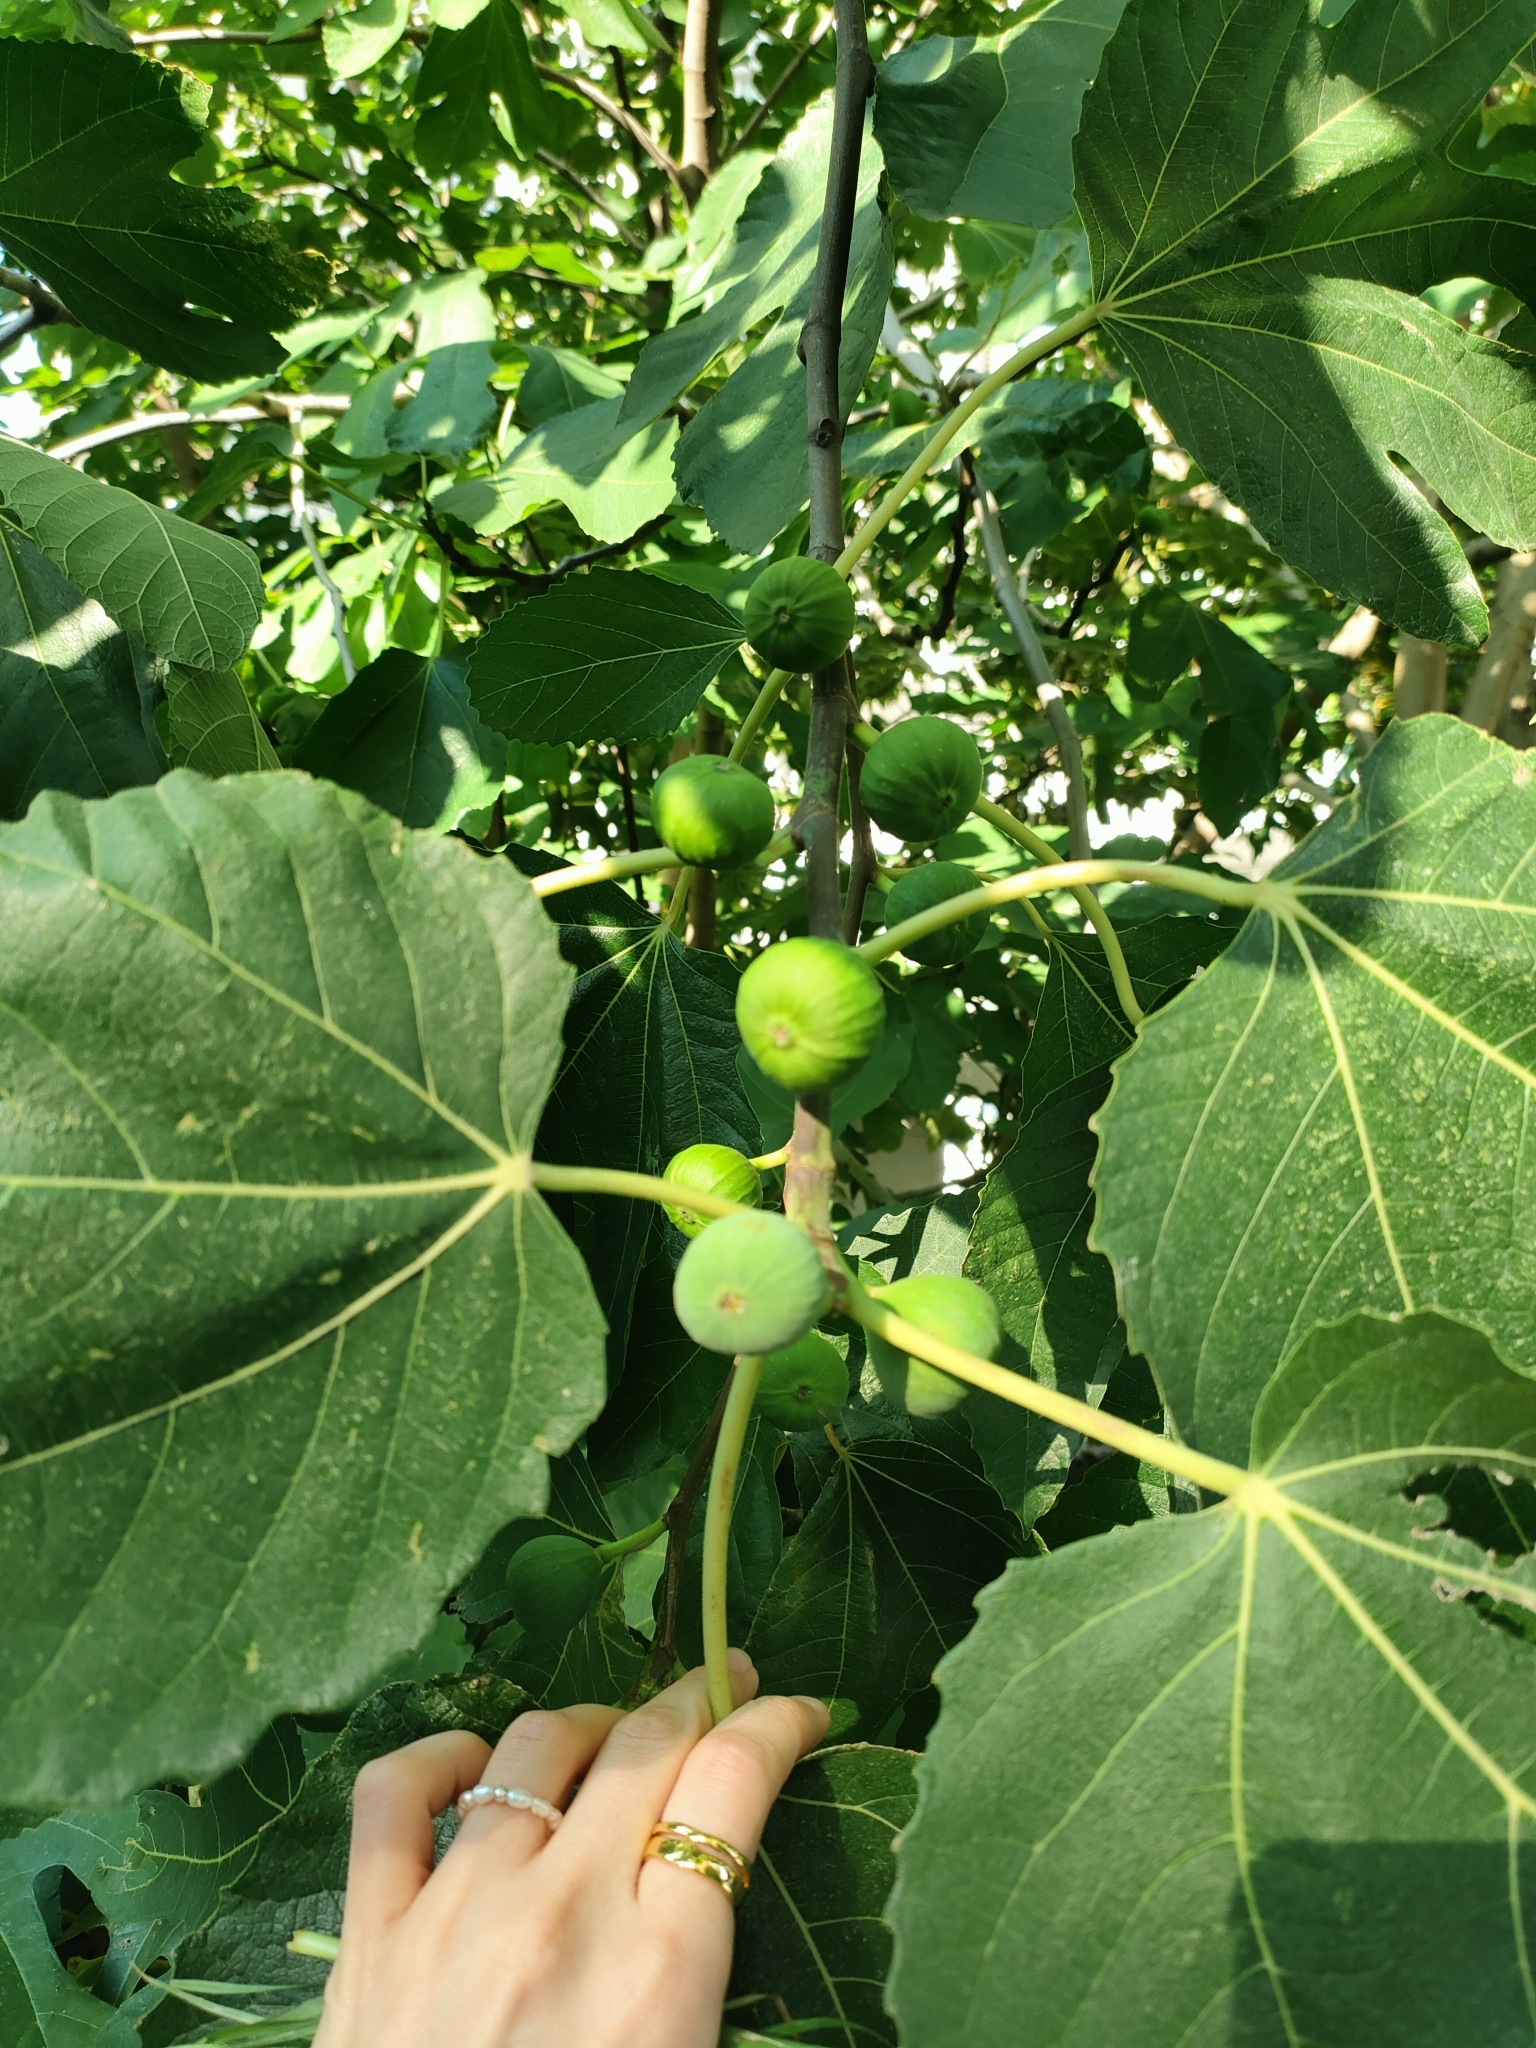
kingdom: Plantae
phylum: Tracheophyta
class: Magnoliopsida
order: Rosales
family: Moraceae
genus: Ficus
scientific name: Ficus carica
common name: Fig
